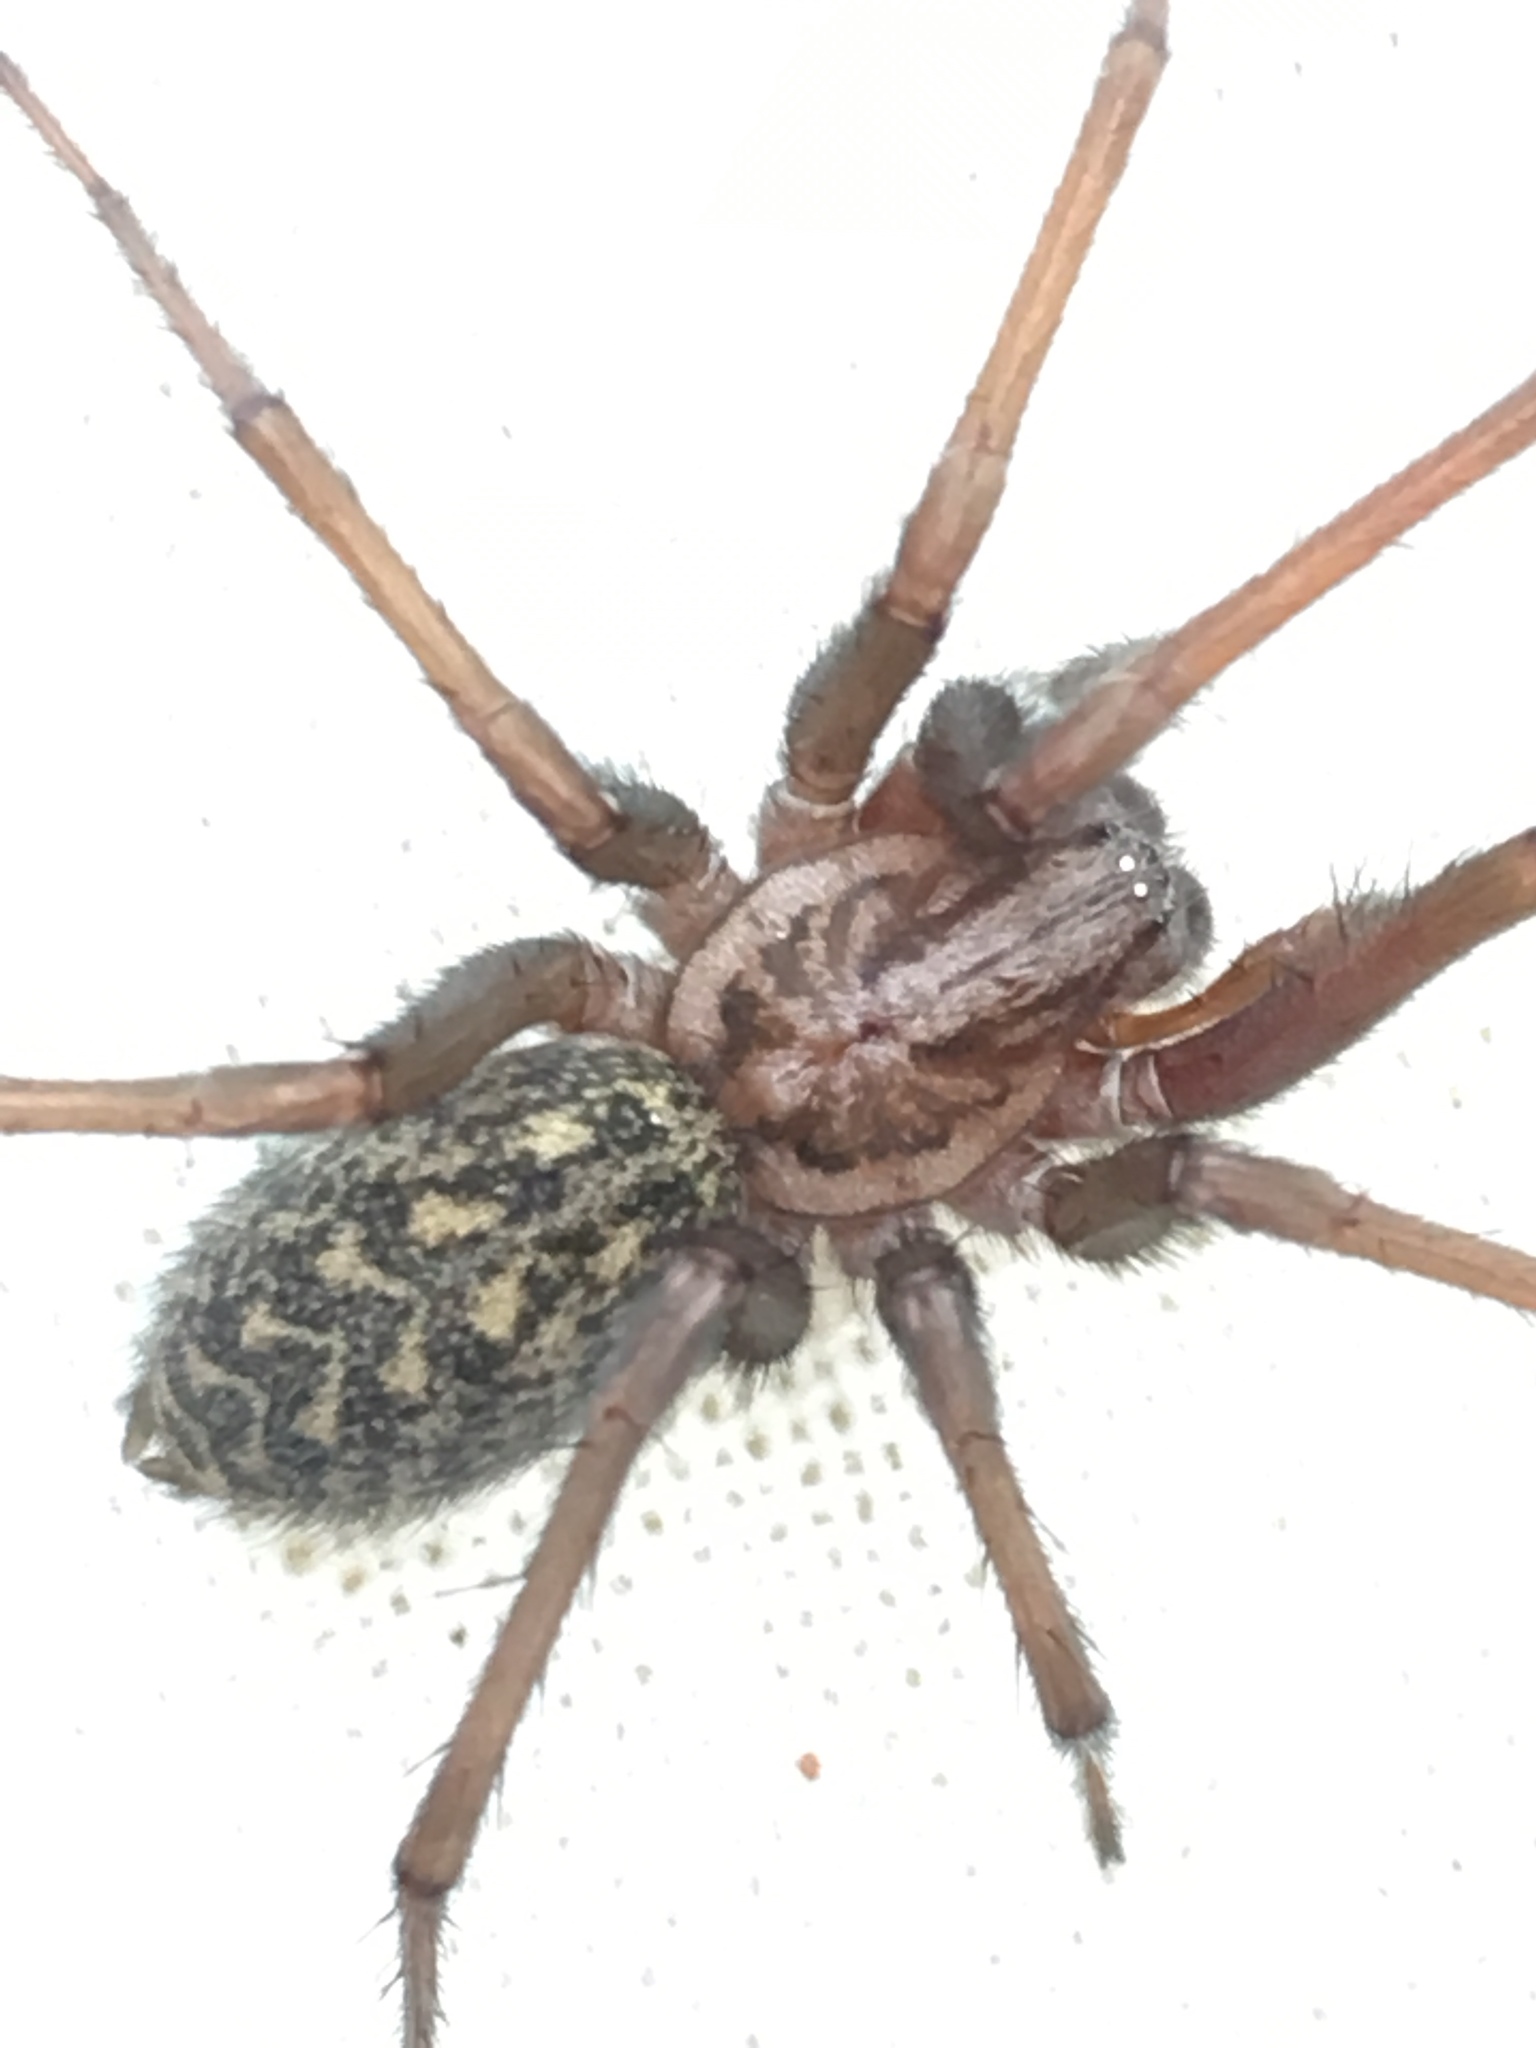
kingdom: Animalia
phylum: Arthropoda
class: Arachnida
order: Araneae
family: Agelenidae
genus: Eratigena
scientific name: Eratigena atrica
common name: Giant house spider
